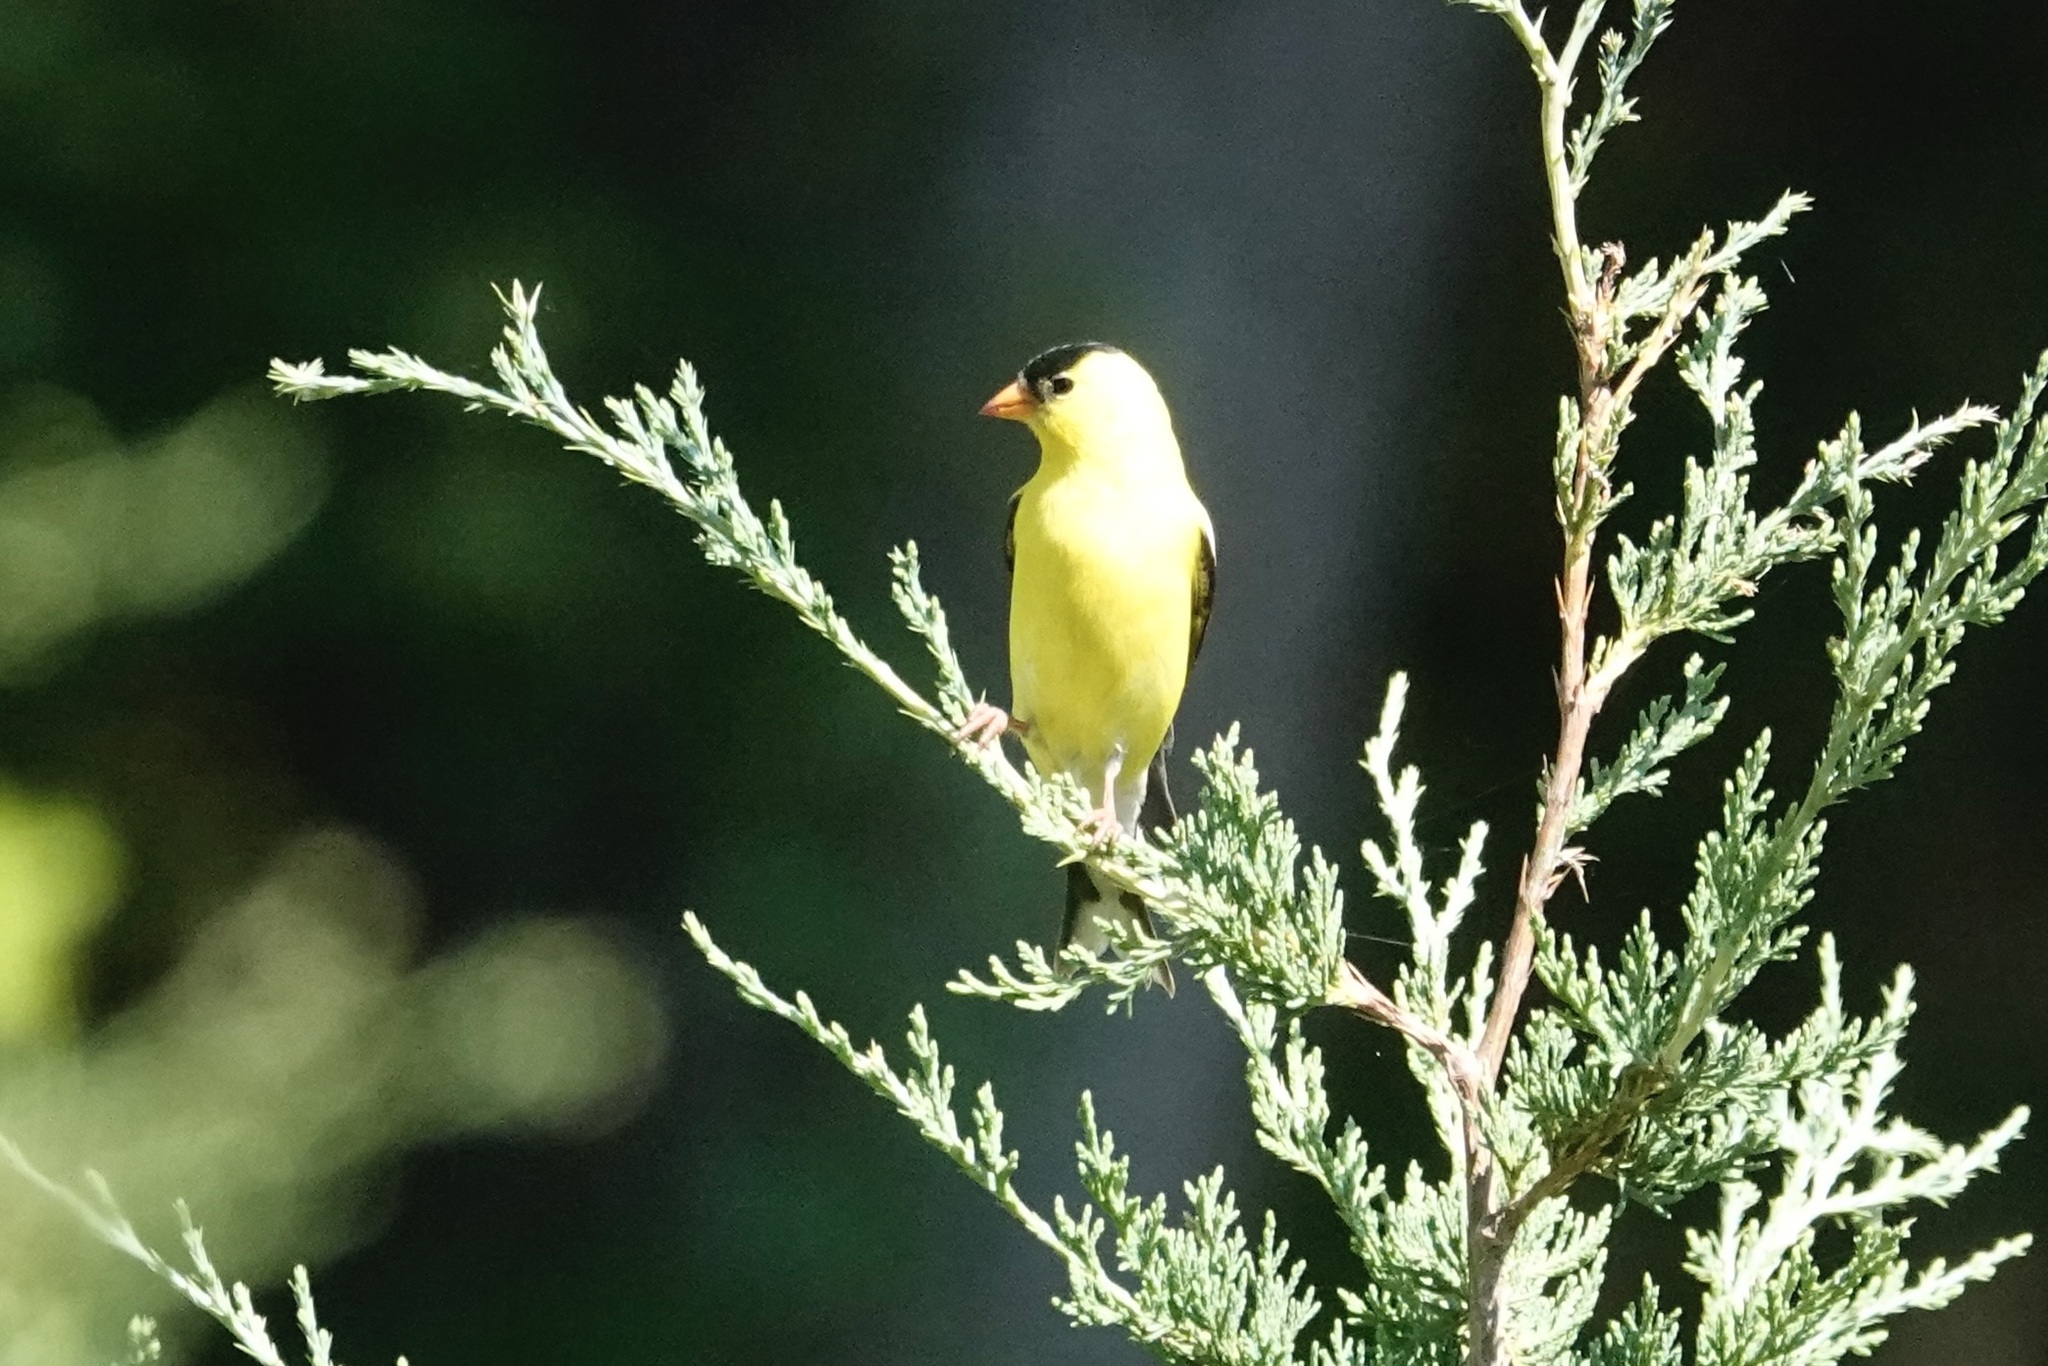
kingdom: Animalia
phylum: Chordata
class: Aves
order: Passeriformes
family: Fringillidae
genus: Spinus
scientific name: Spinus tristis
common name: American goldfinch
